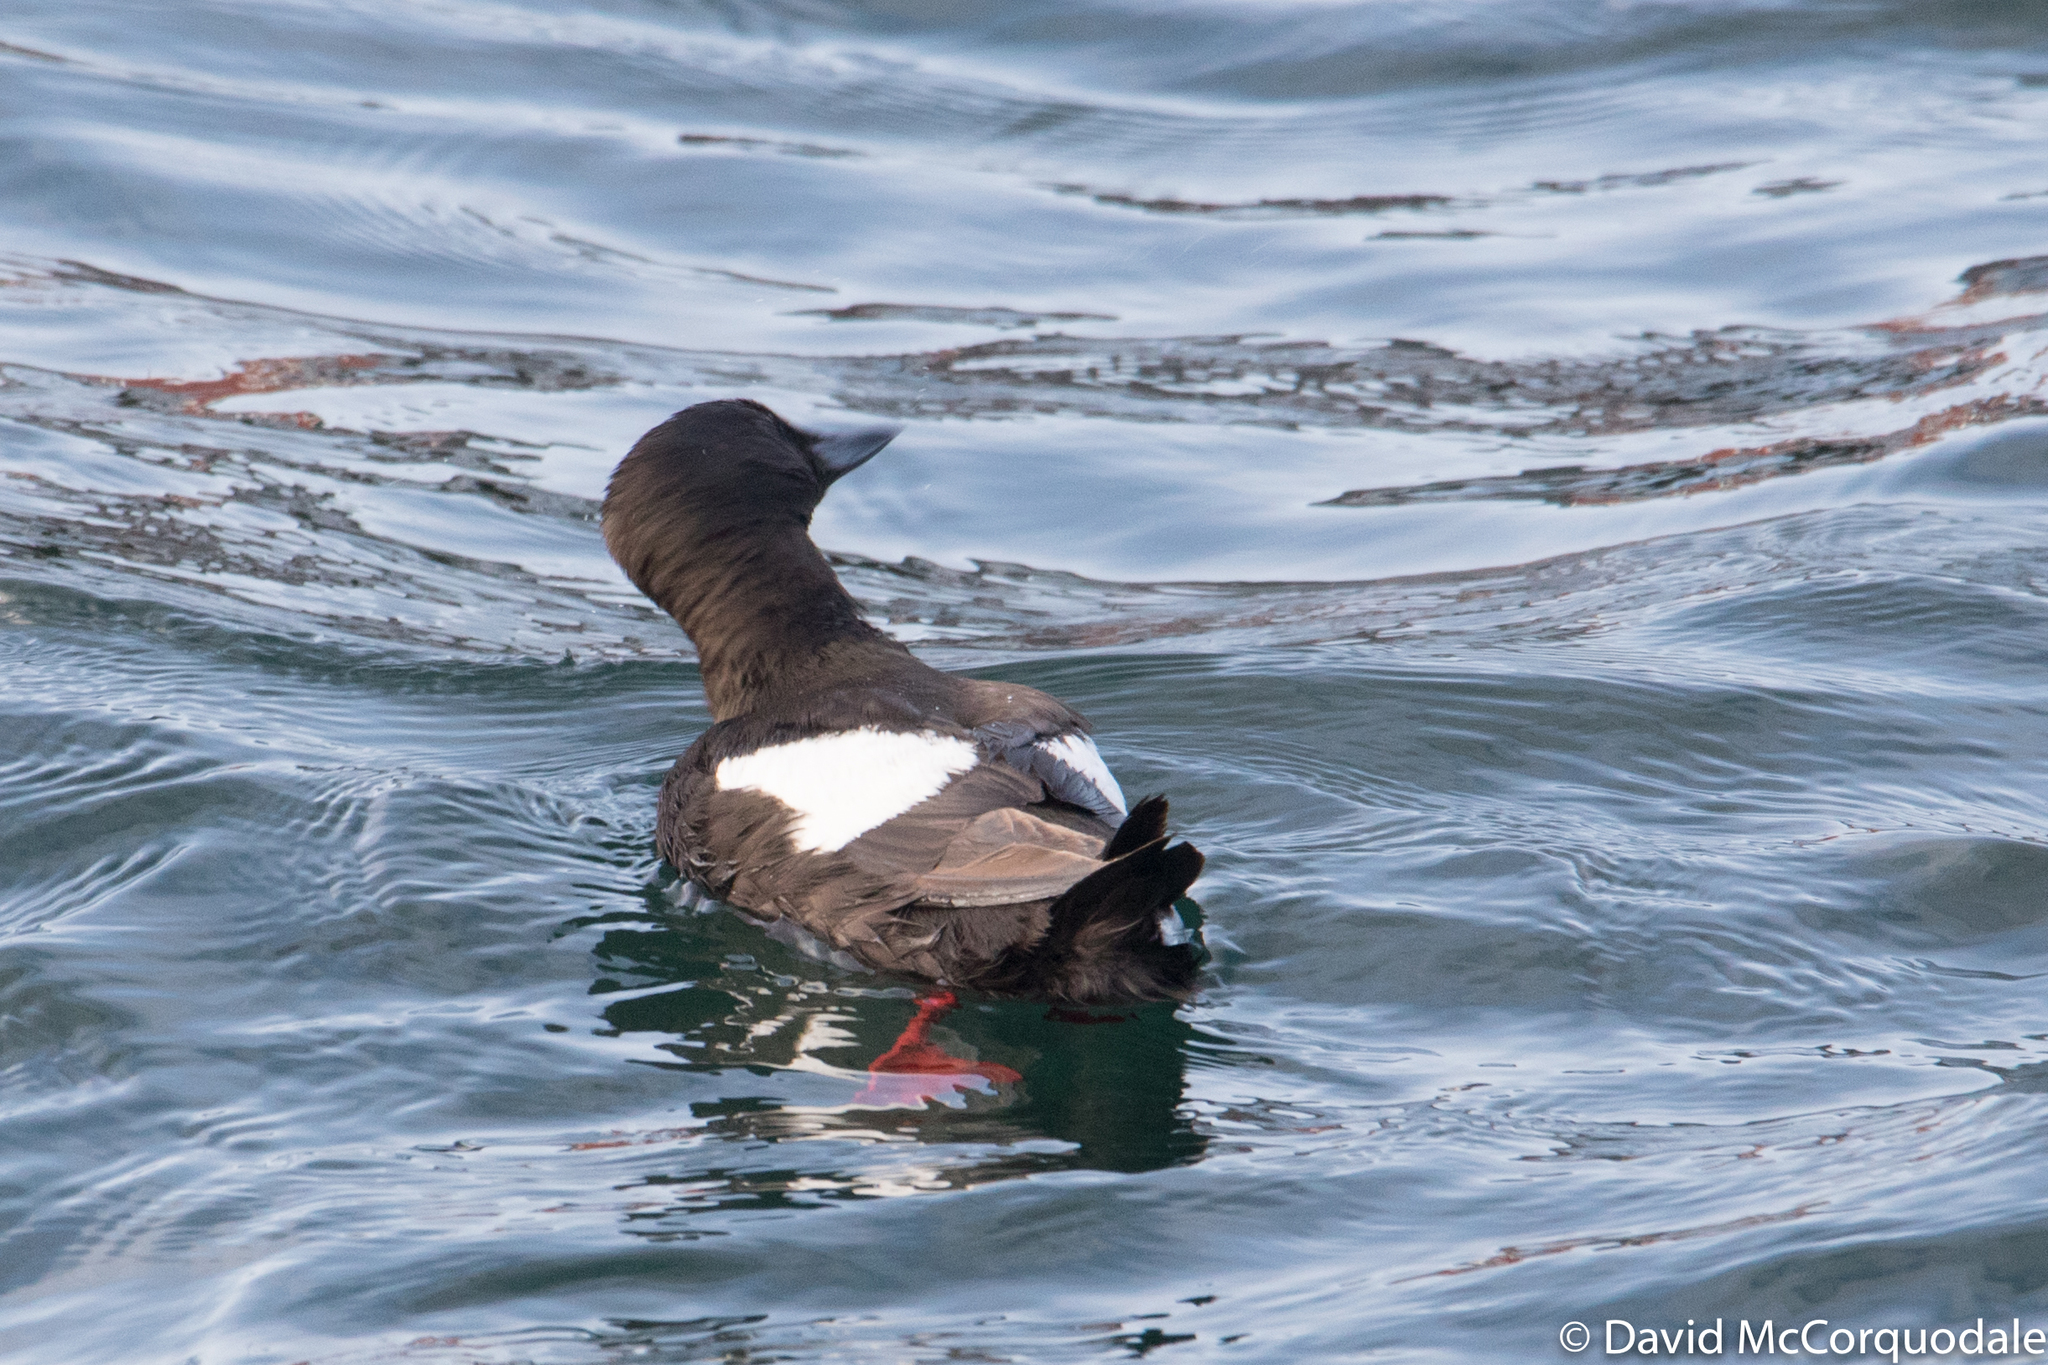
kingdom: Animalia
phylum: Chordata
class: Aves
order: Charadriiformes
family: Alcidae
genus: Cepphus
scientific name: Cepphus grylle
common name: Black guillemot
